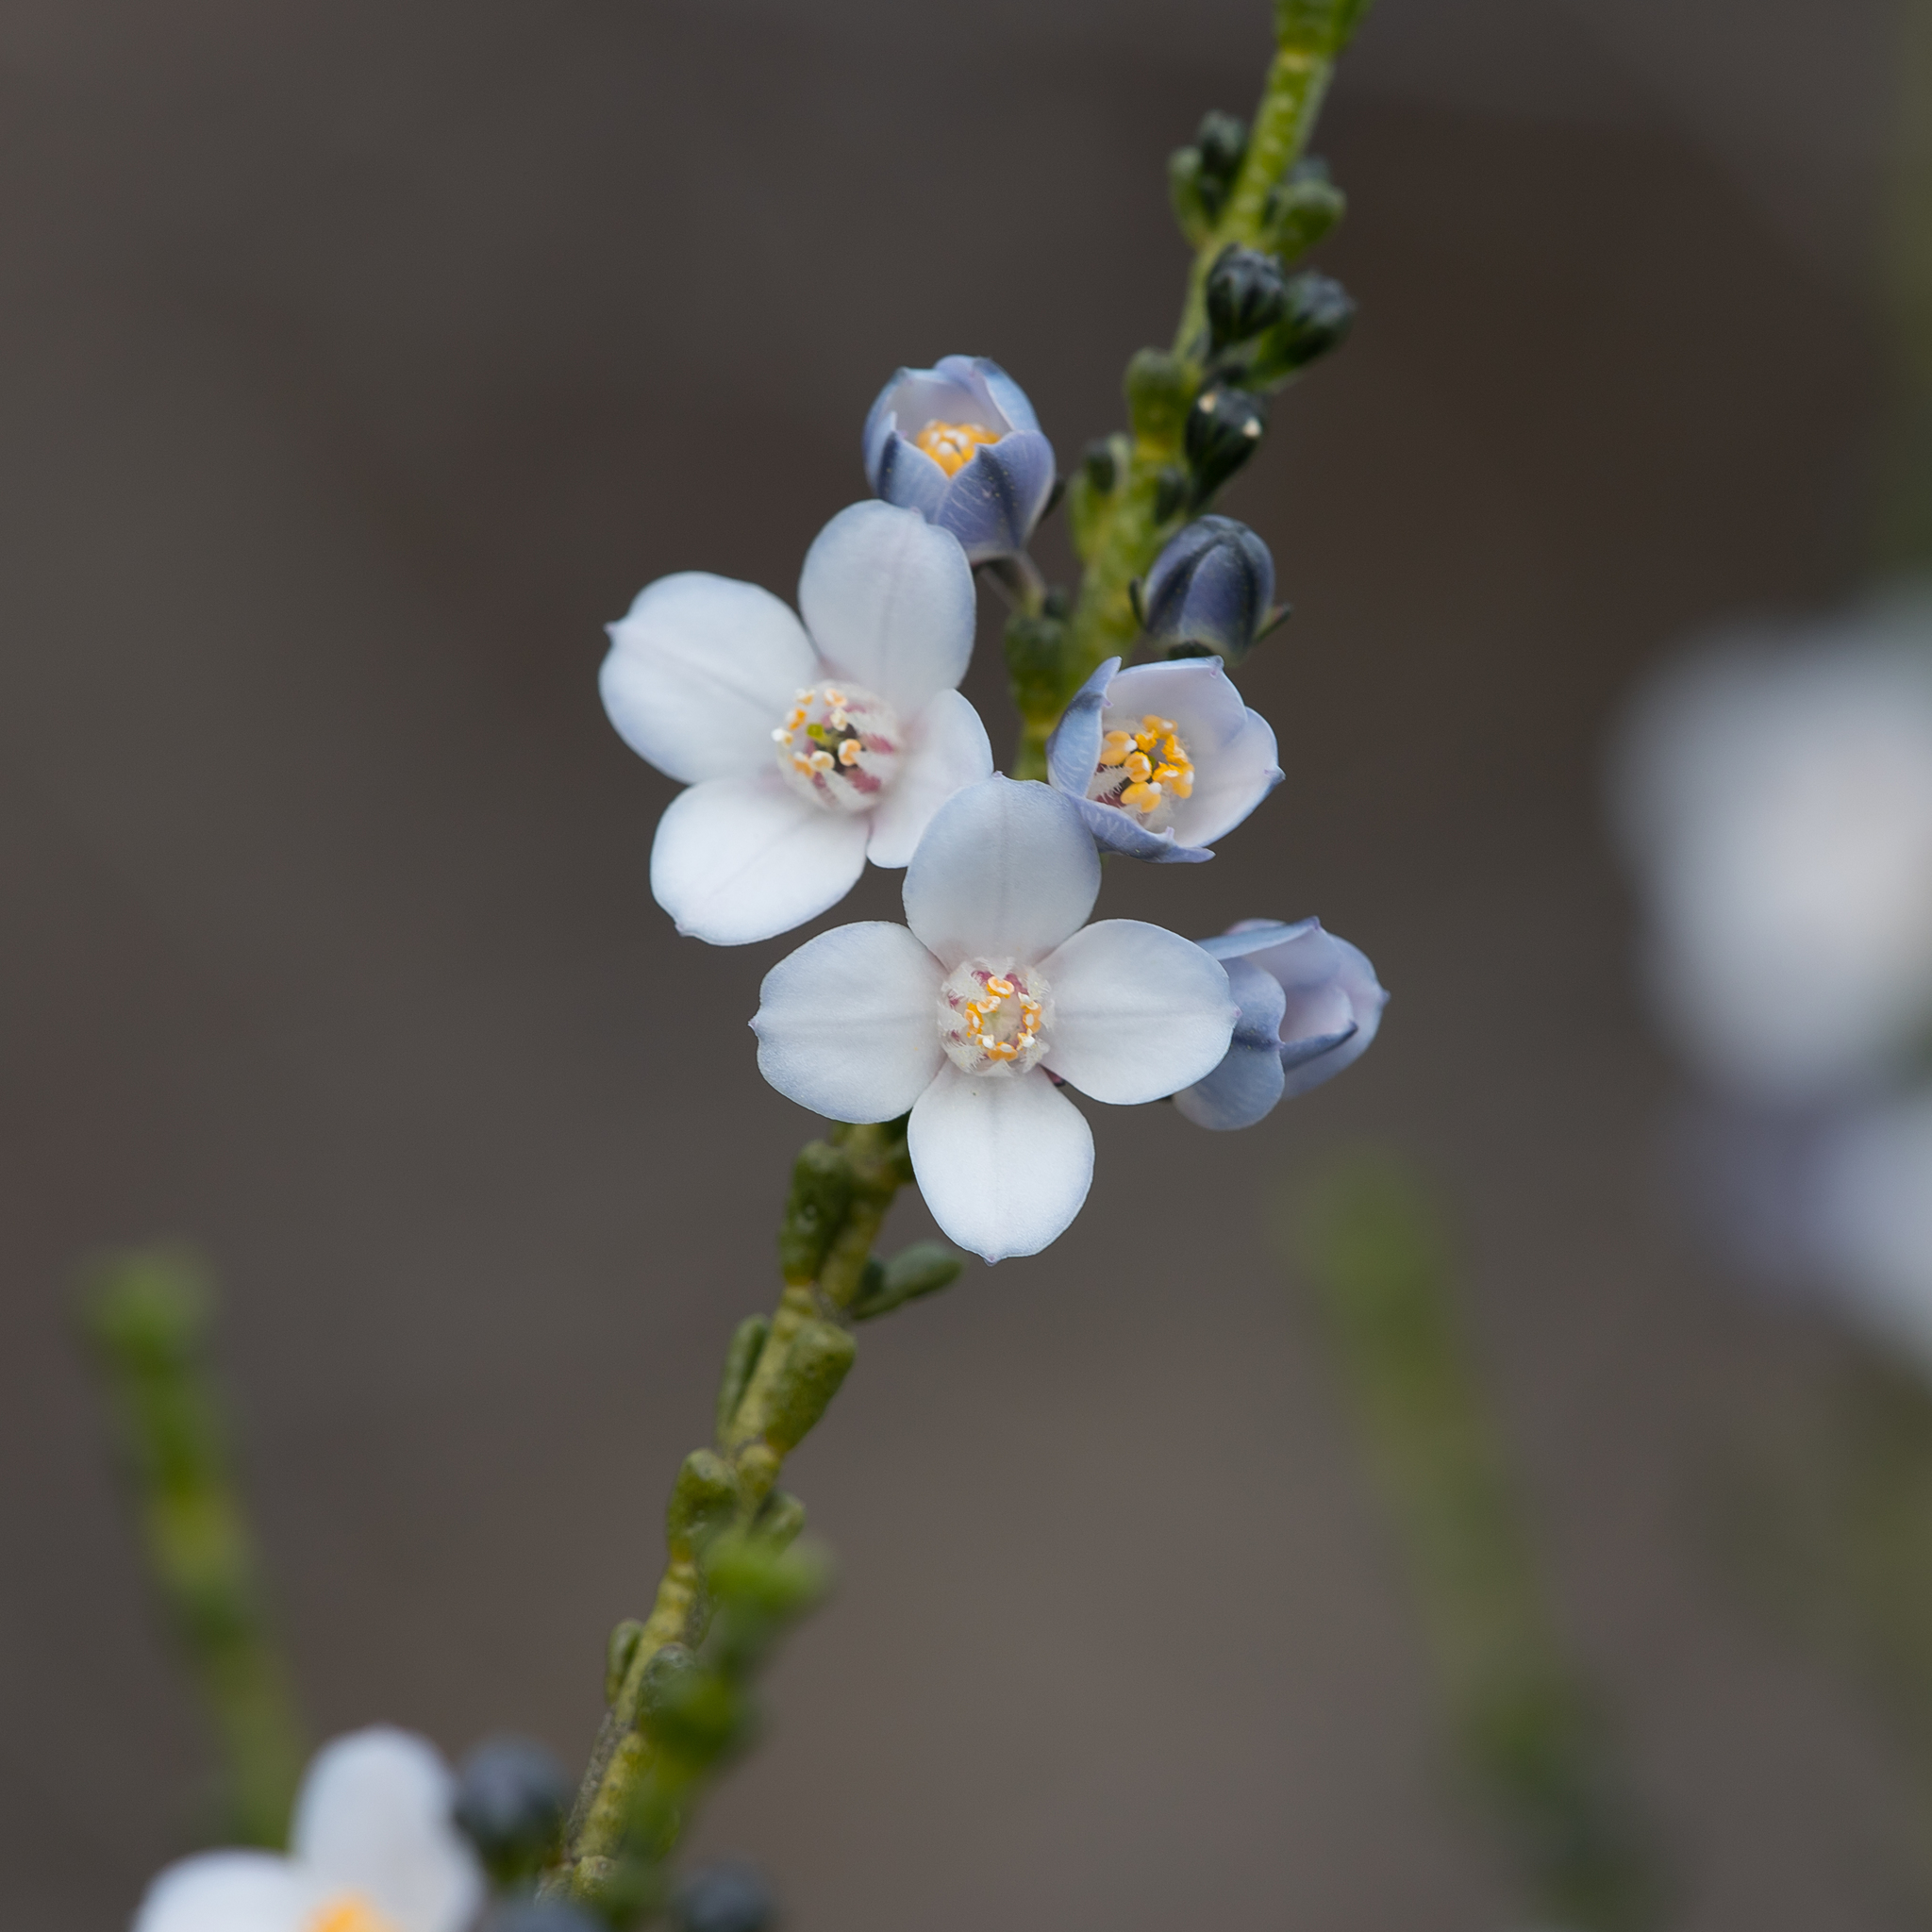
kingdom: Plantae
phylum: Tracheophyta
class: Magnoliopsida
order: Sapindales
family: Rutaceae
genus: Cyanothamnus
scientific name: Cyanothamnus coerulescens
